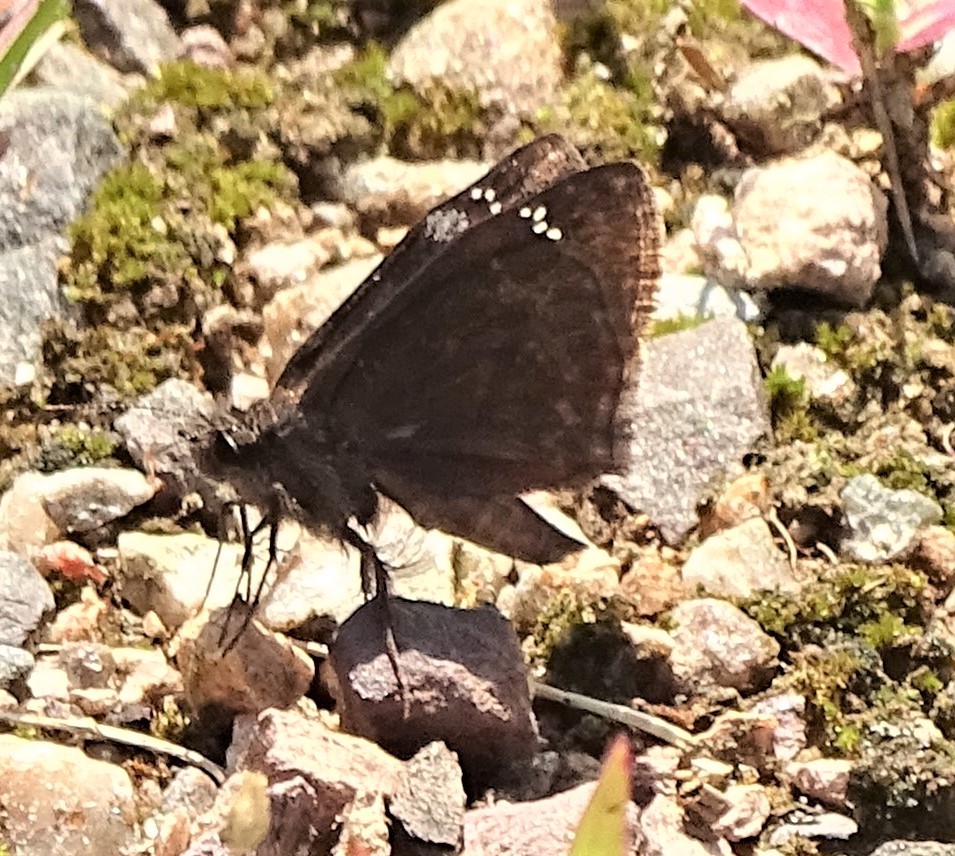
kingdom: Animalia
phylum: Arthropoda
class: Insecta
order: Lepidoptera
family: Hesperiidae
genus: Erynnis
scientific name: Erynnis baptisiae
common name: Wild indigo duskywing
